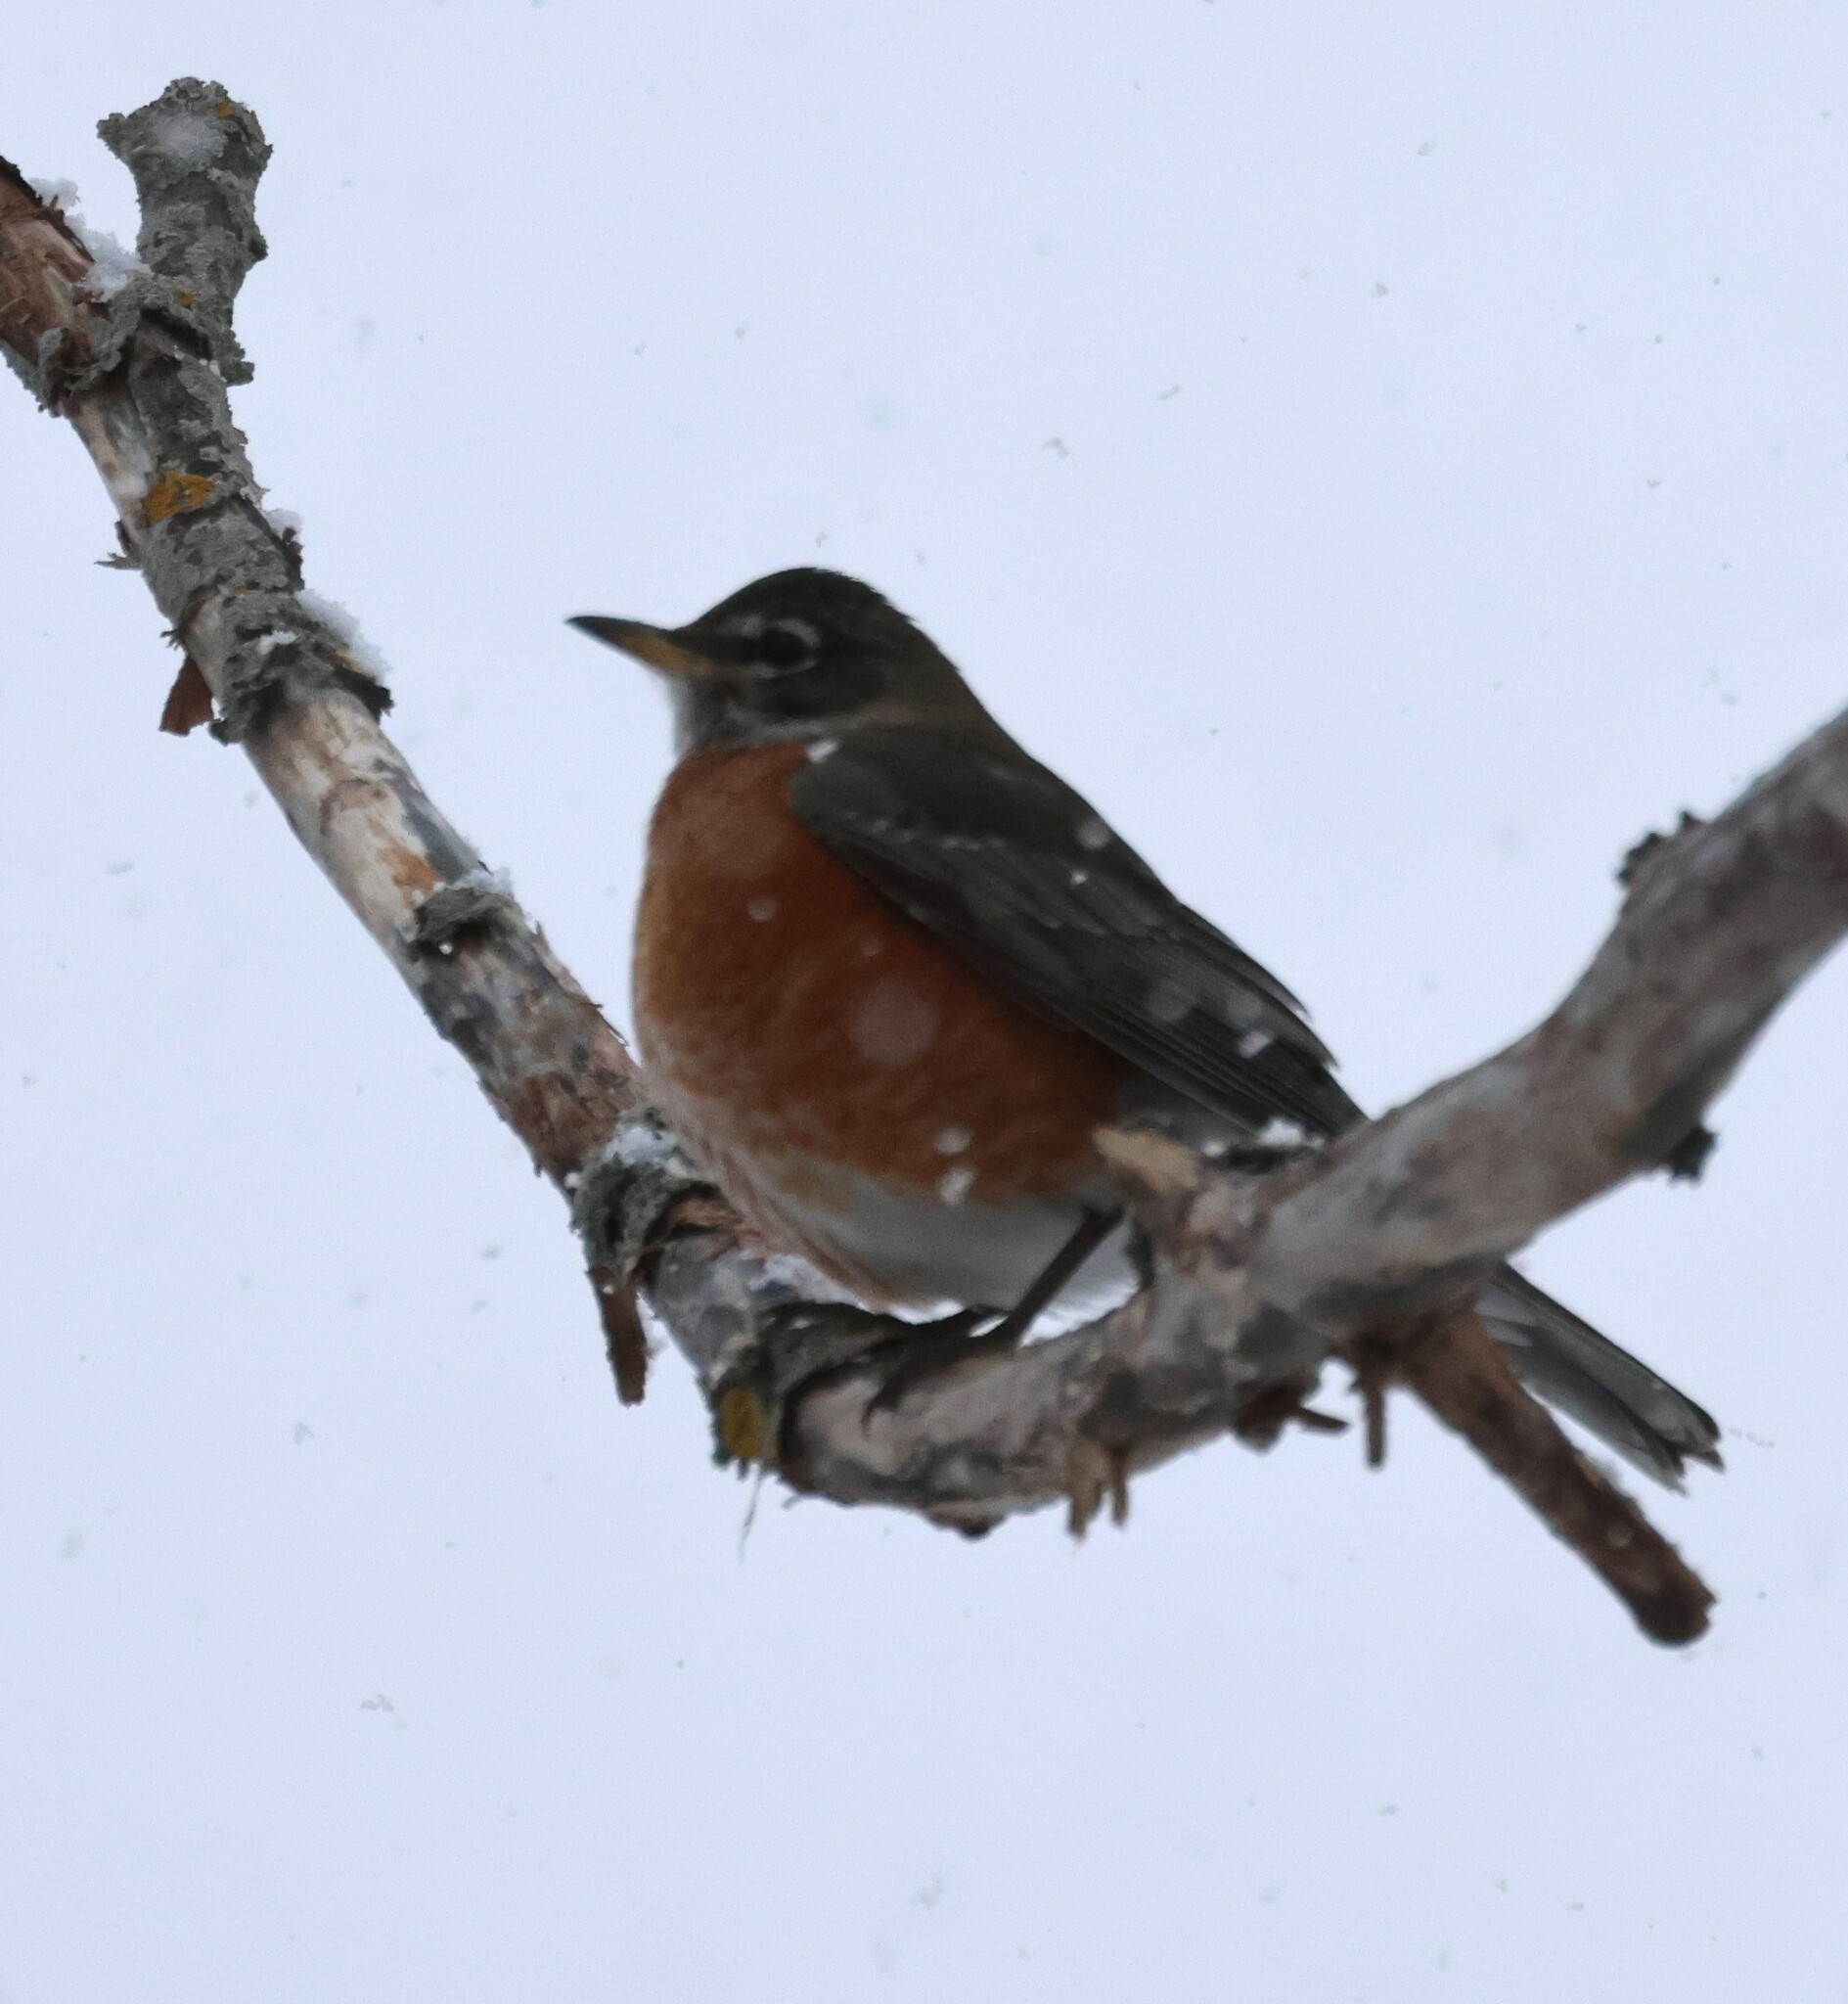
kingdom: Animalia
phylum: Chordata
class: Aves
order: Passeriformes
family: Turdidae
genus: Turdus
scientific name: Turdus migratorius
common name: American robin
